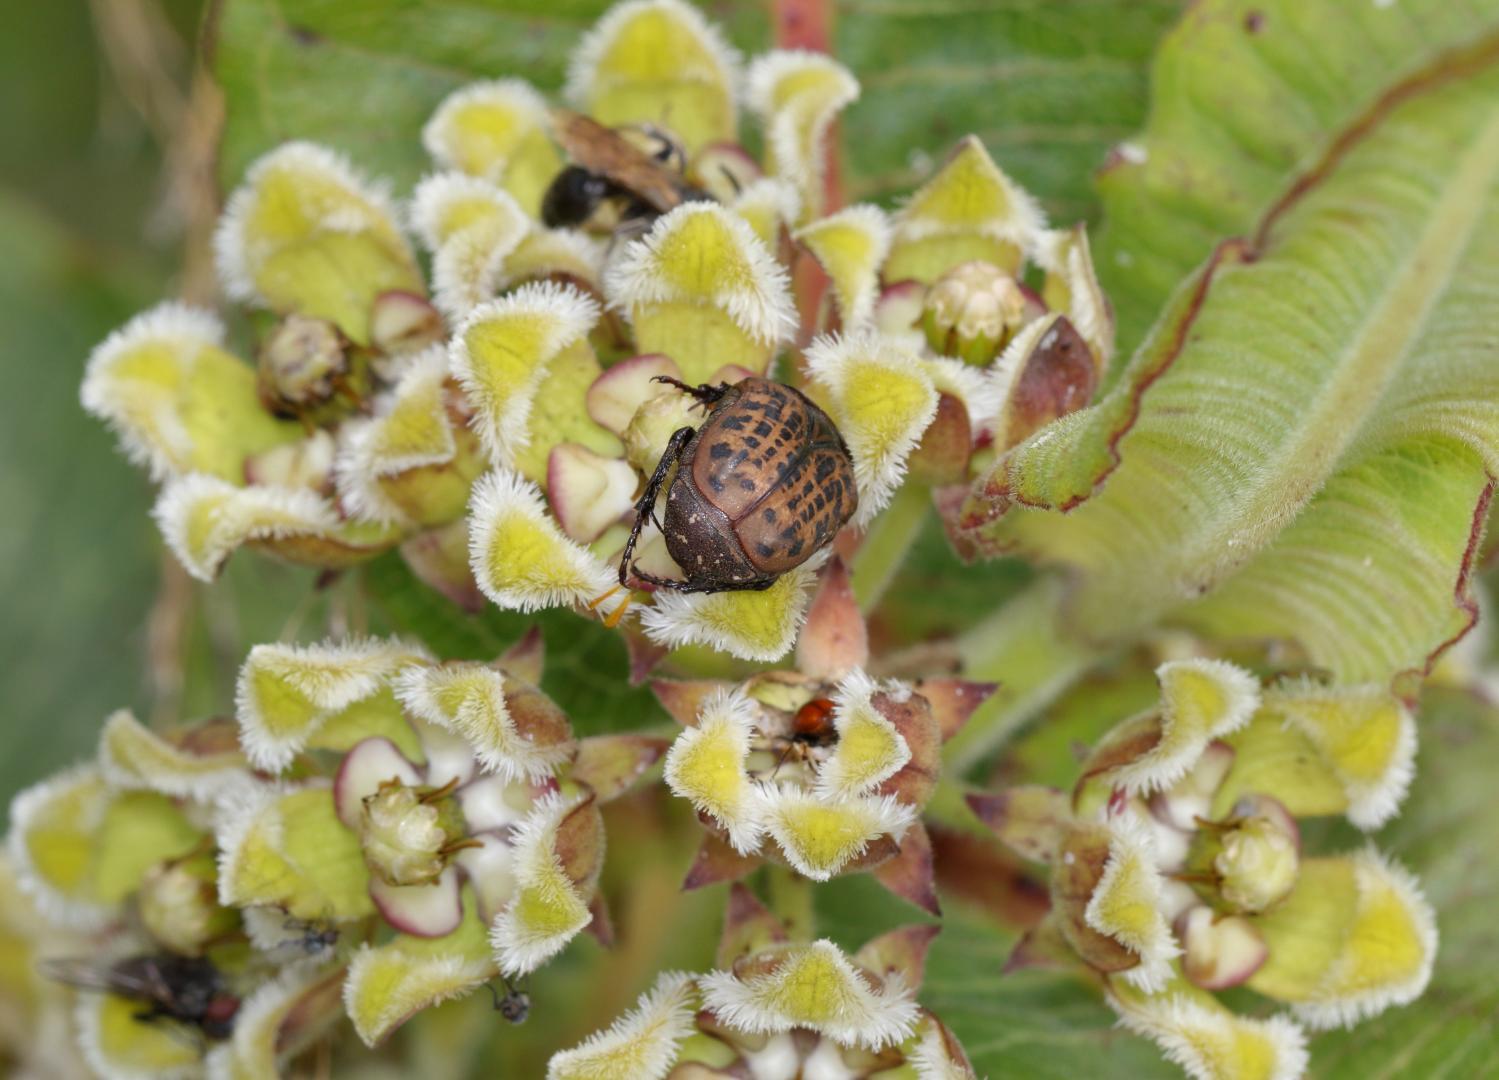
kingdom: Animalia
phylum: Arthropoda
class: Insecta
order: Coleoptera
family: Scarabaeidae
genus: Atrichelaphinis
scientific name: Atrichelaphinis tigrina
